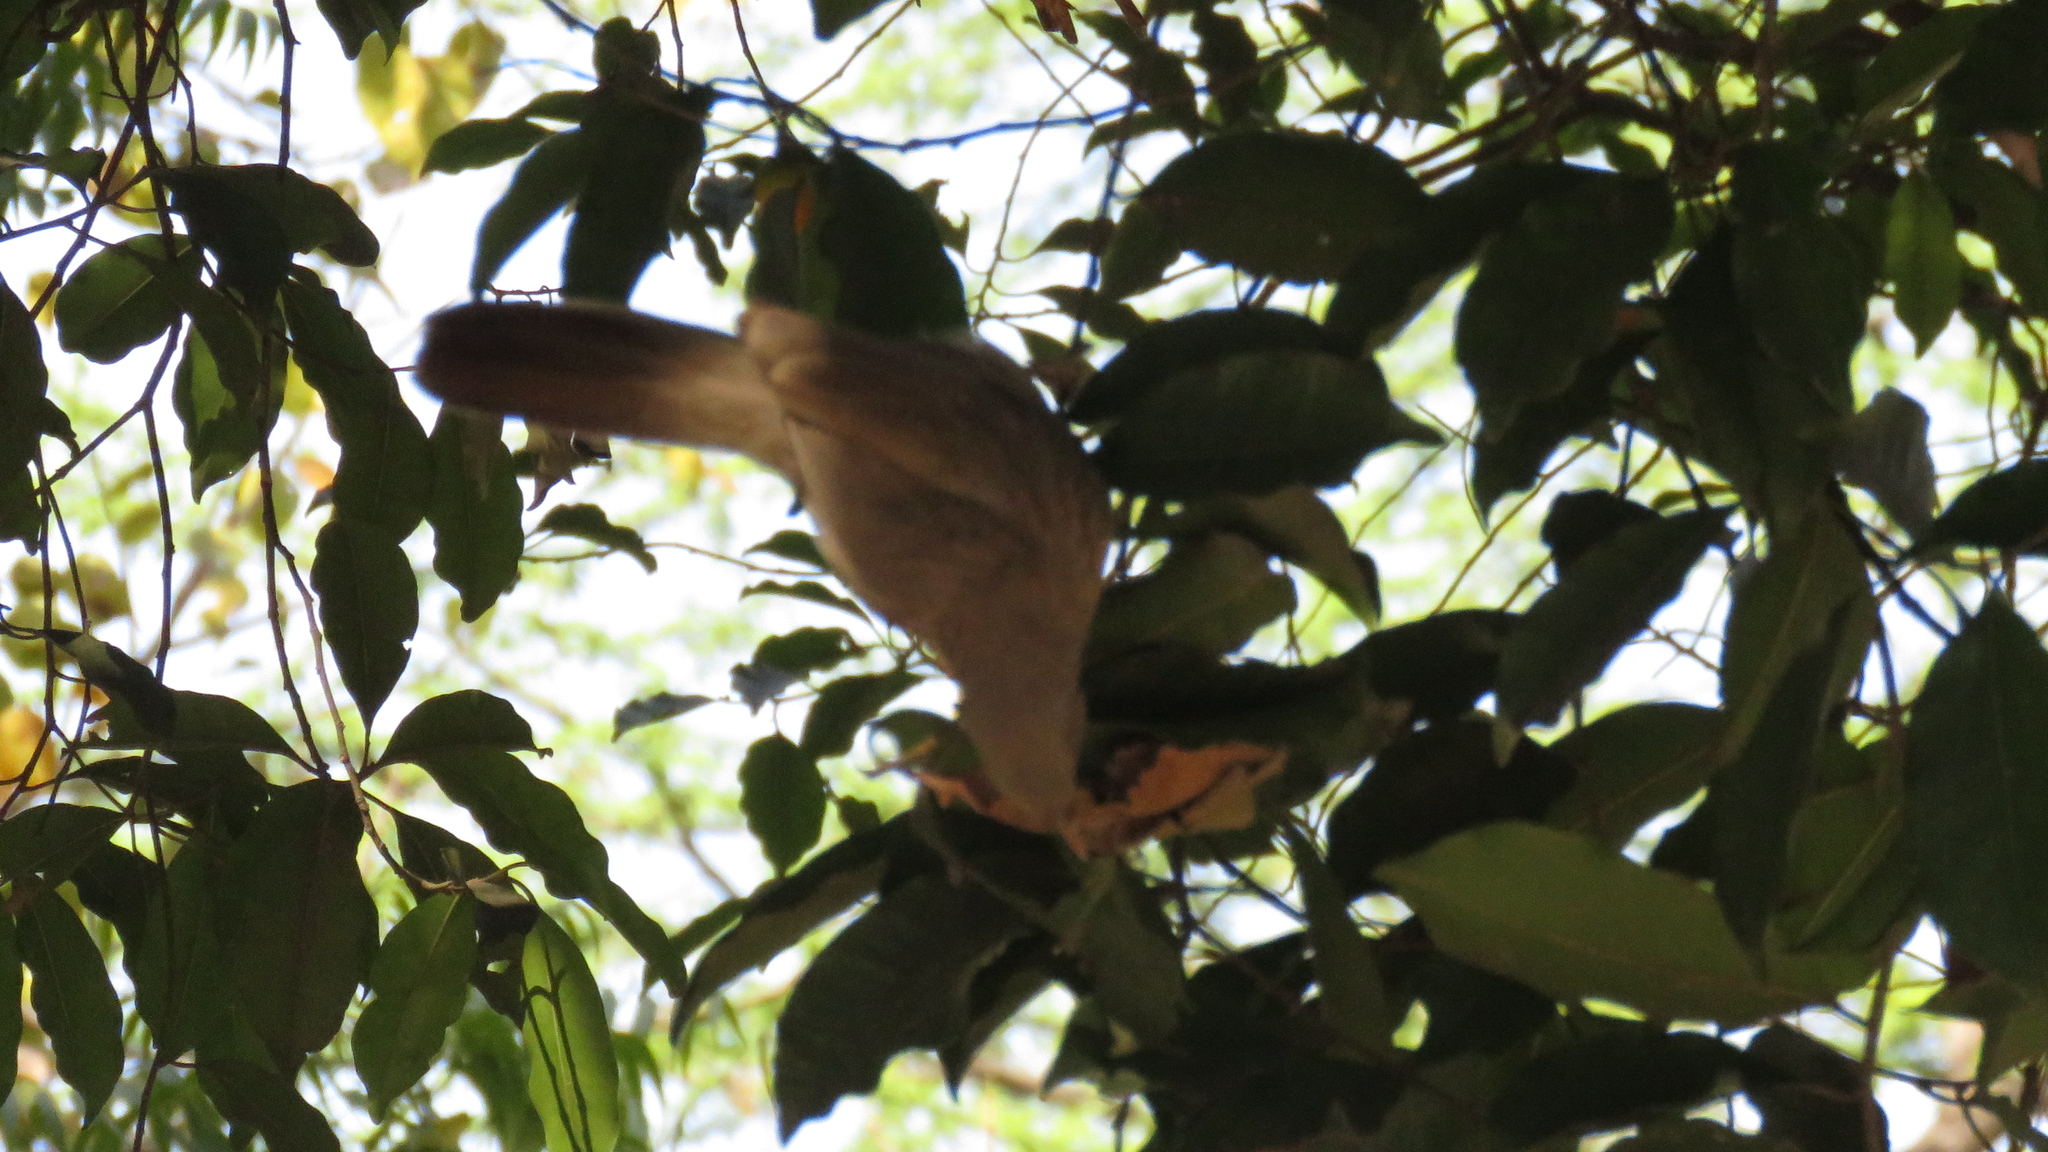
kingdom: Animalia
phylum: Chordata
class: Aves
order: Passeriformes
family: Leiothrichidae
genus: Turdoides
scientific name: Turdoides striata
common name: Jungle babbler
